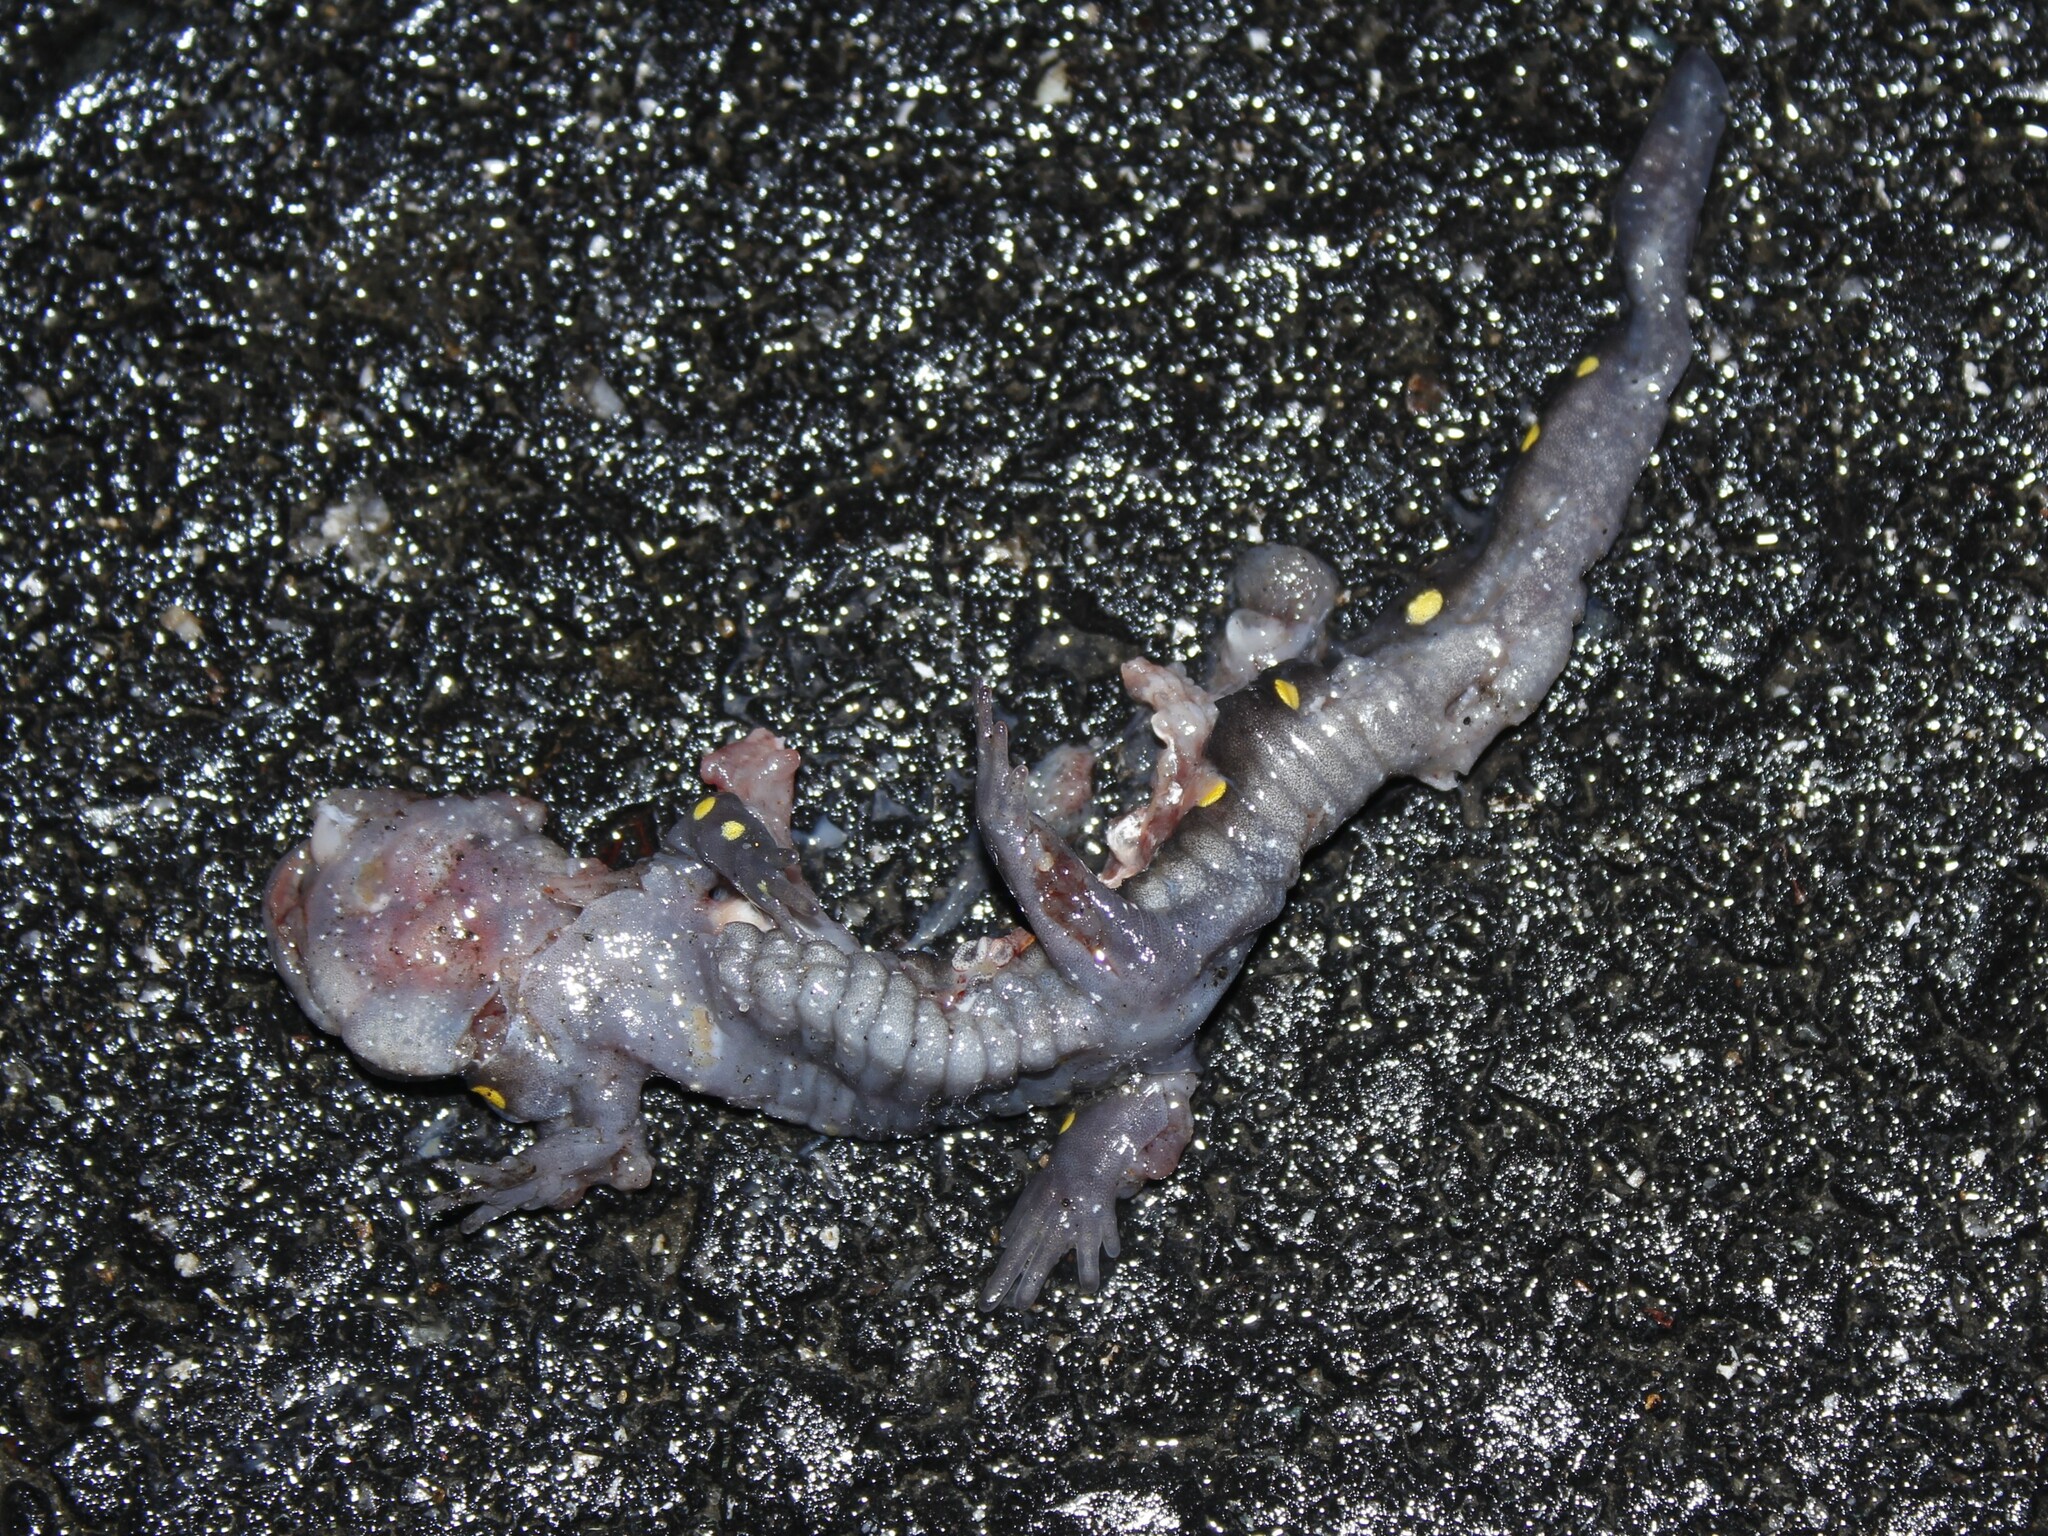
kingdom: Animalia
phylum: Chordata
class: Amphibia
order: Caudata
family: Ambystomatidae
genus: Ambystoma
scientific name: Ambystoma maculatum
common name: Spotted salamander
